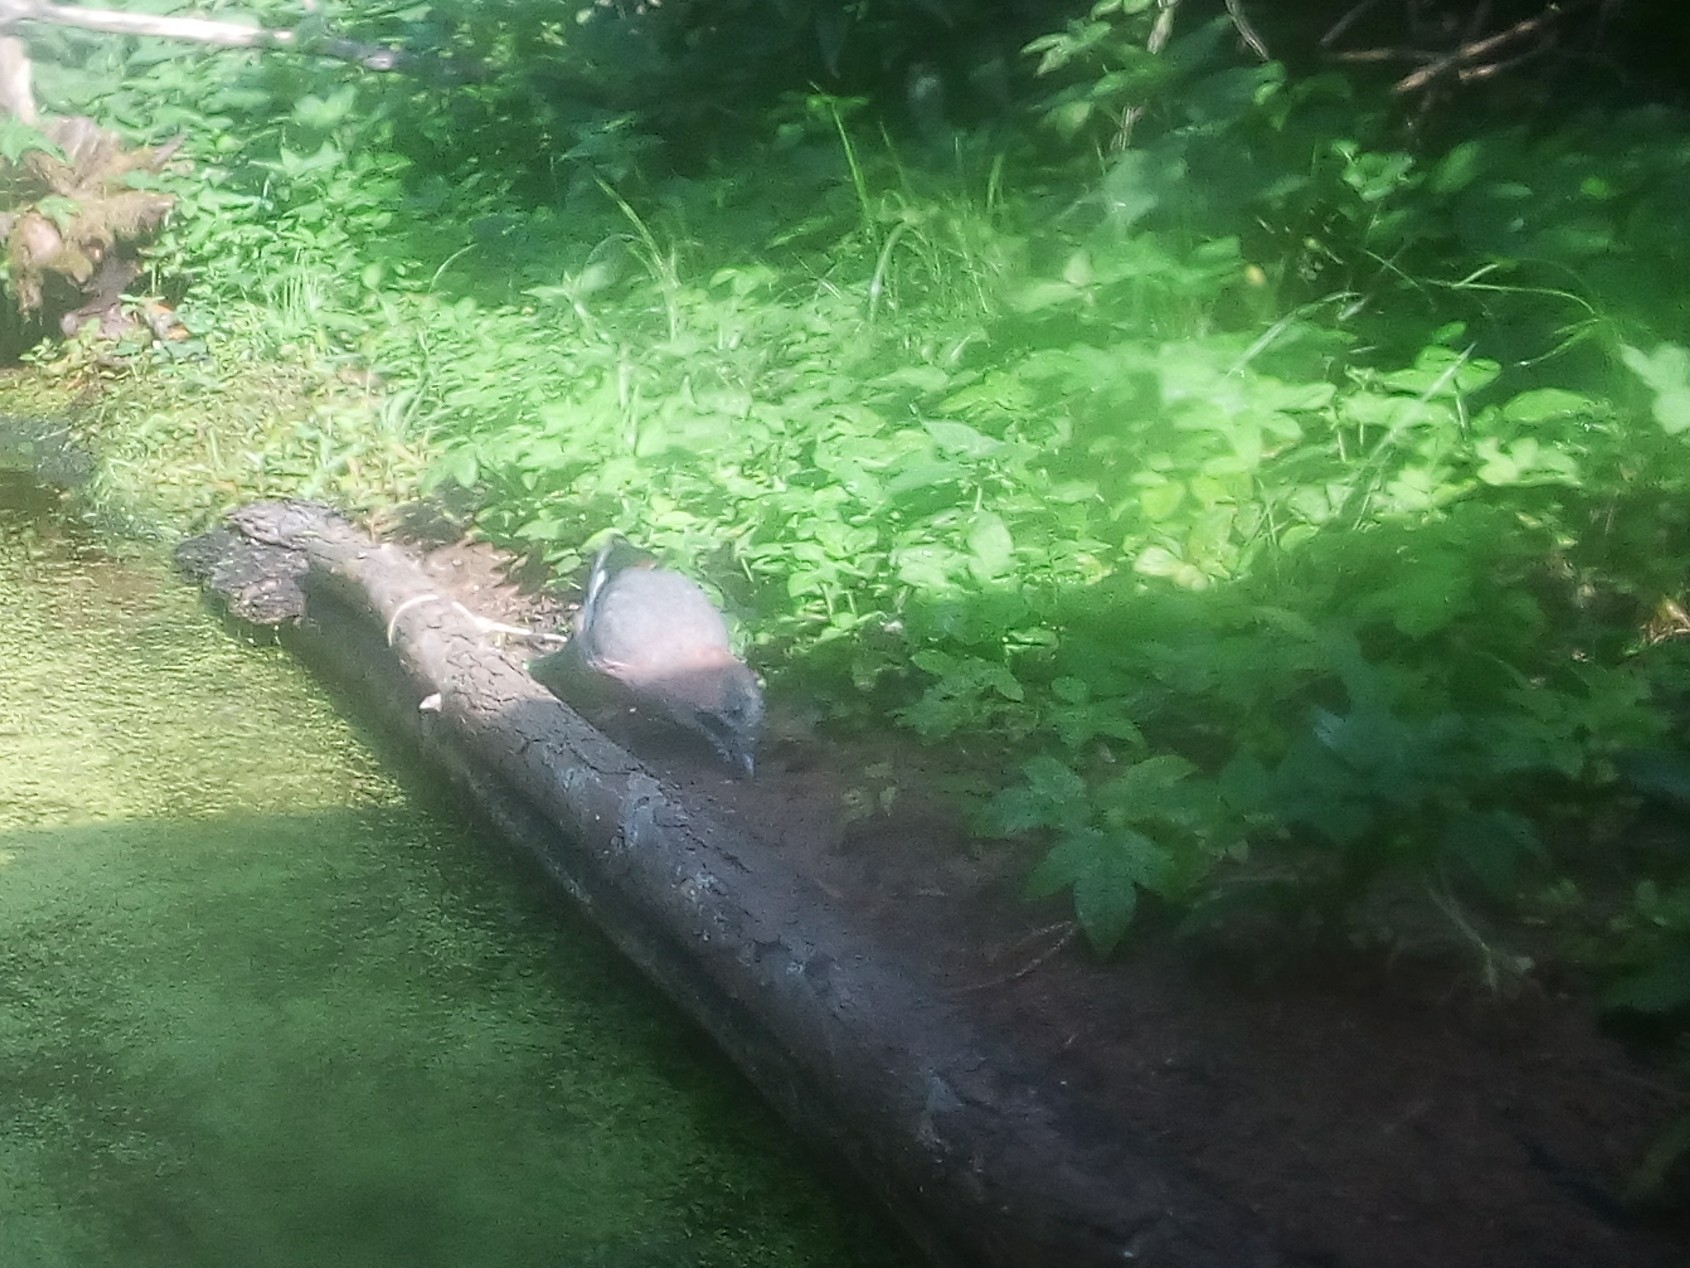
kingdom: Animalia
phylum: Chordata
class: Aves
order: Passeriformes
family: Corvidae
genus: Garrulus
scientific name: Garrulus glandarius
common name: Eurasian jay
